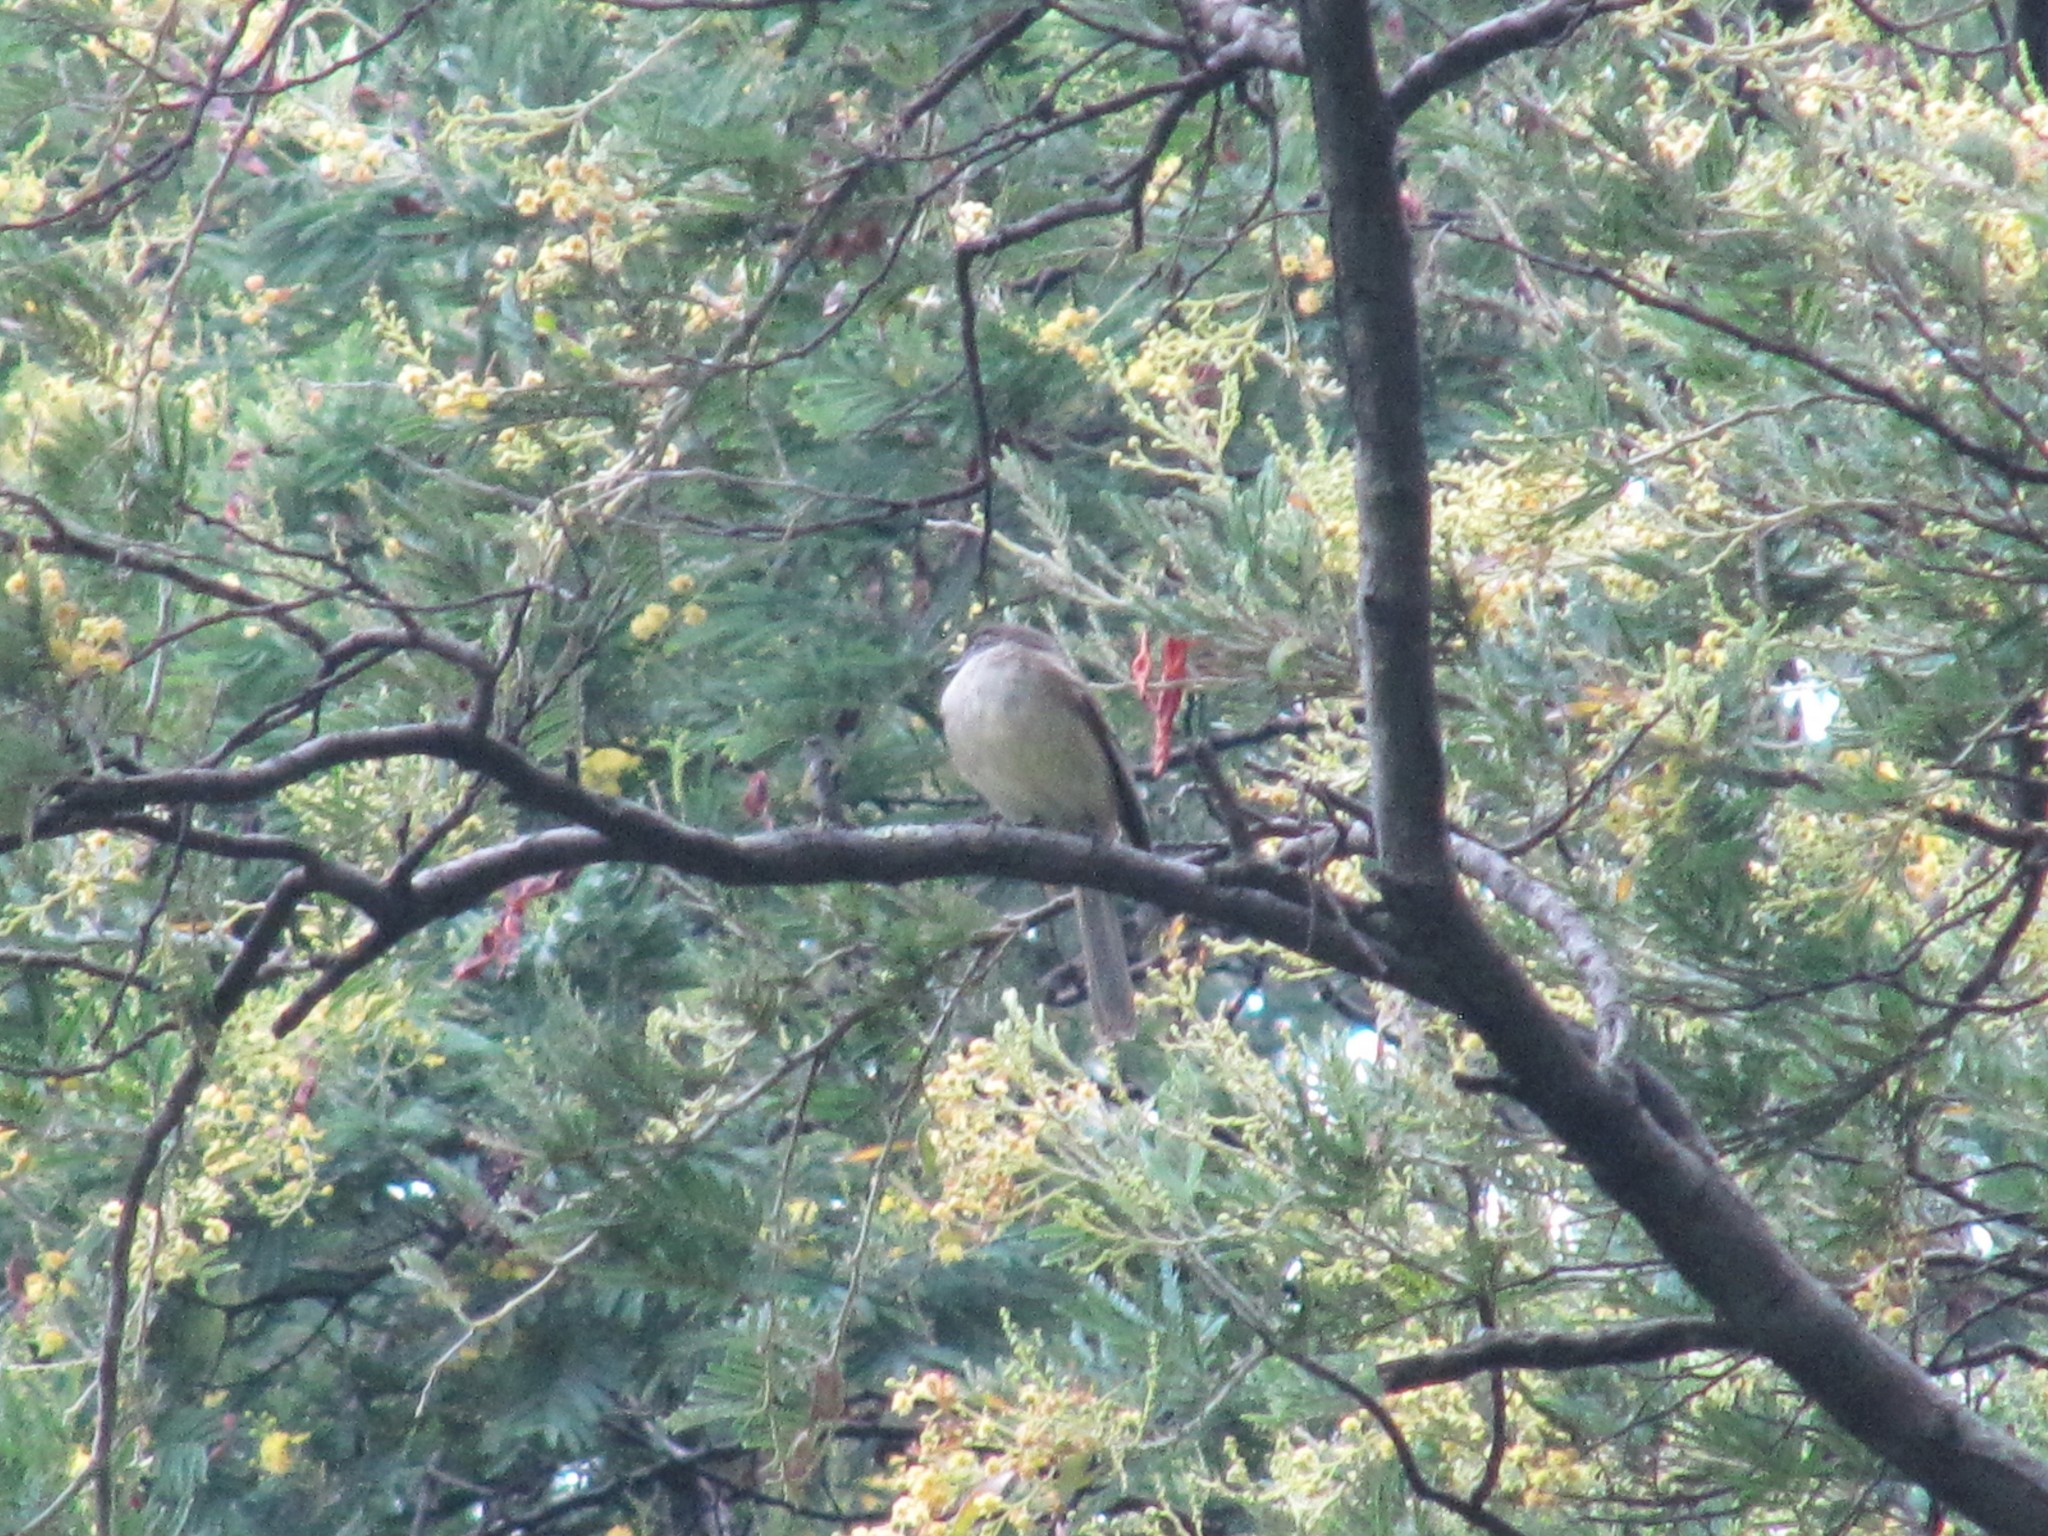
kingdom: Animalia
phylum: Chordata
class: Aves
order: Passeriformes
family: Tyrannidae
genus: Mecocerculus
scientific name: Mecocerculus leucophrys
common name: White-throated tyrannulet
